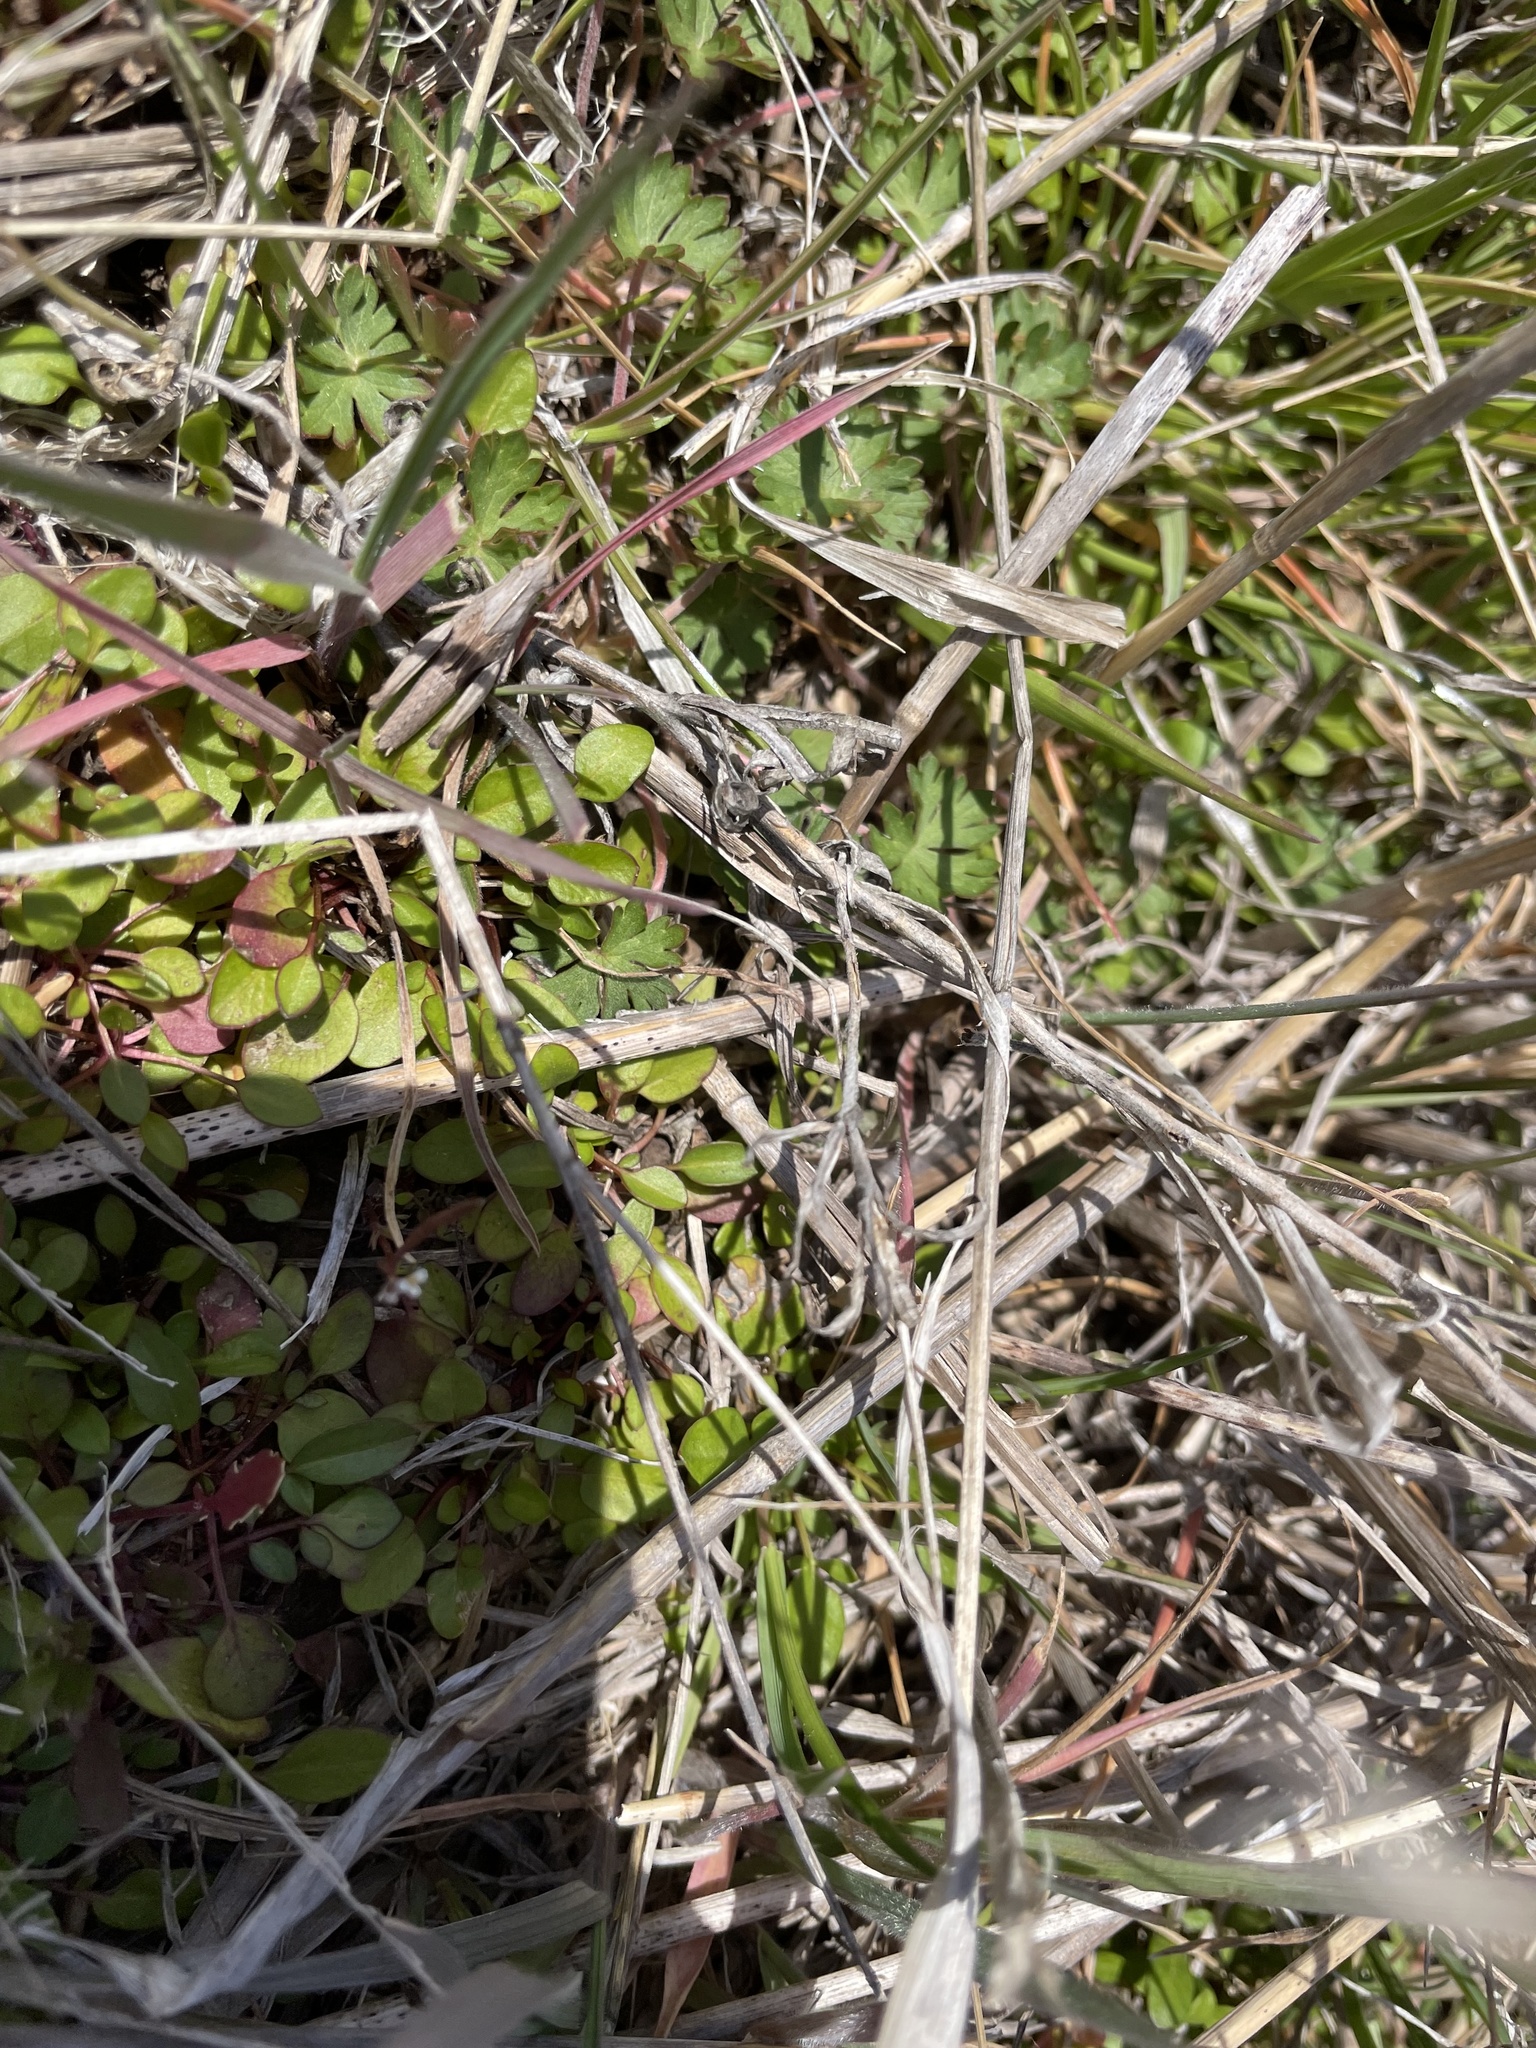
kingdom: Animalia
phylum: Arthropoda
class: Insecta
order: Orthoptera
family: Acrididae
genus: Chortophaga
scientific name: Chortophaga viridifasciata
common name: Green-striped grasshopper
